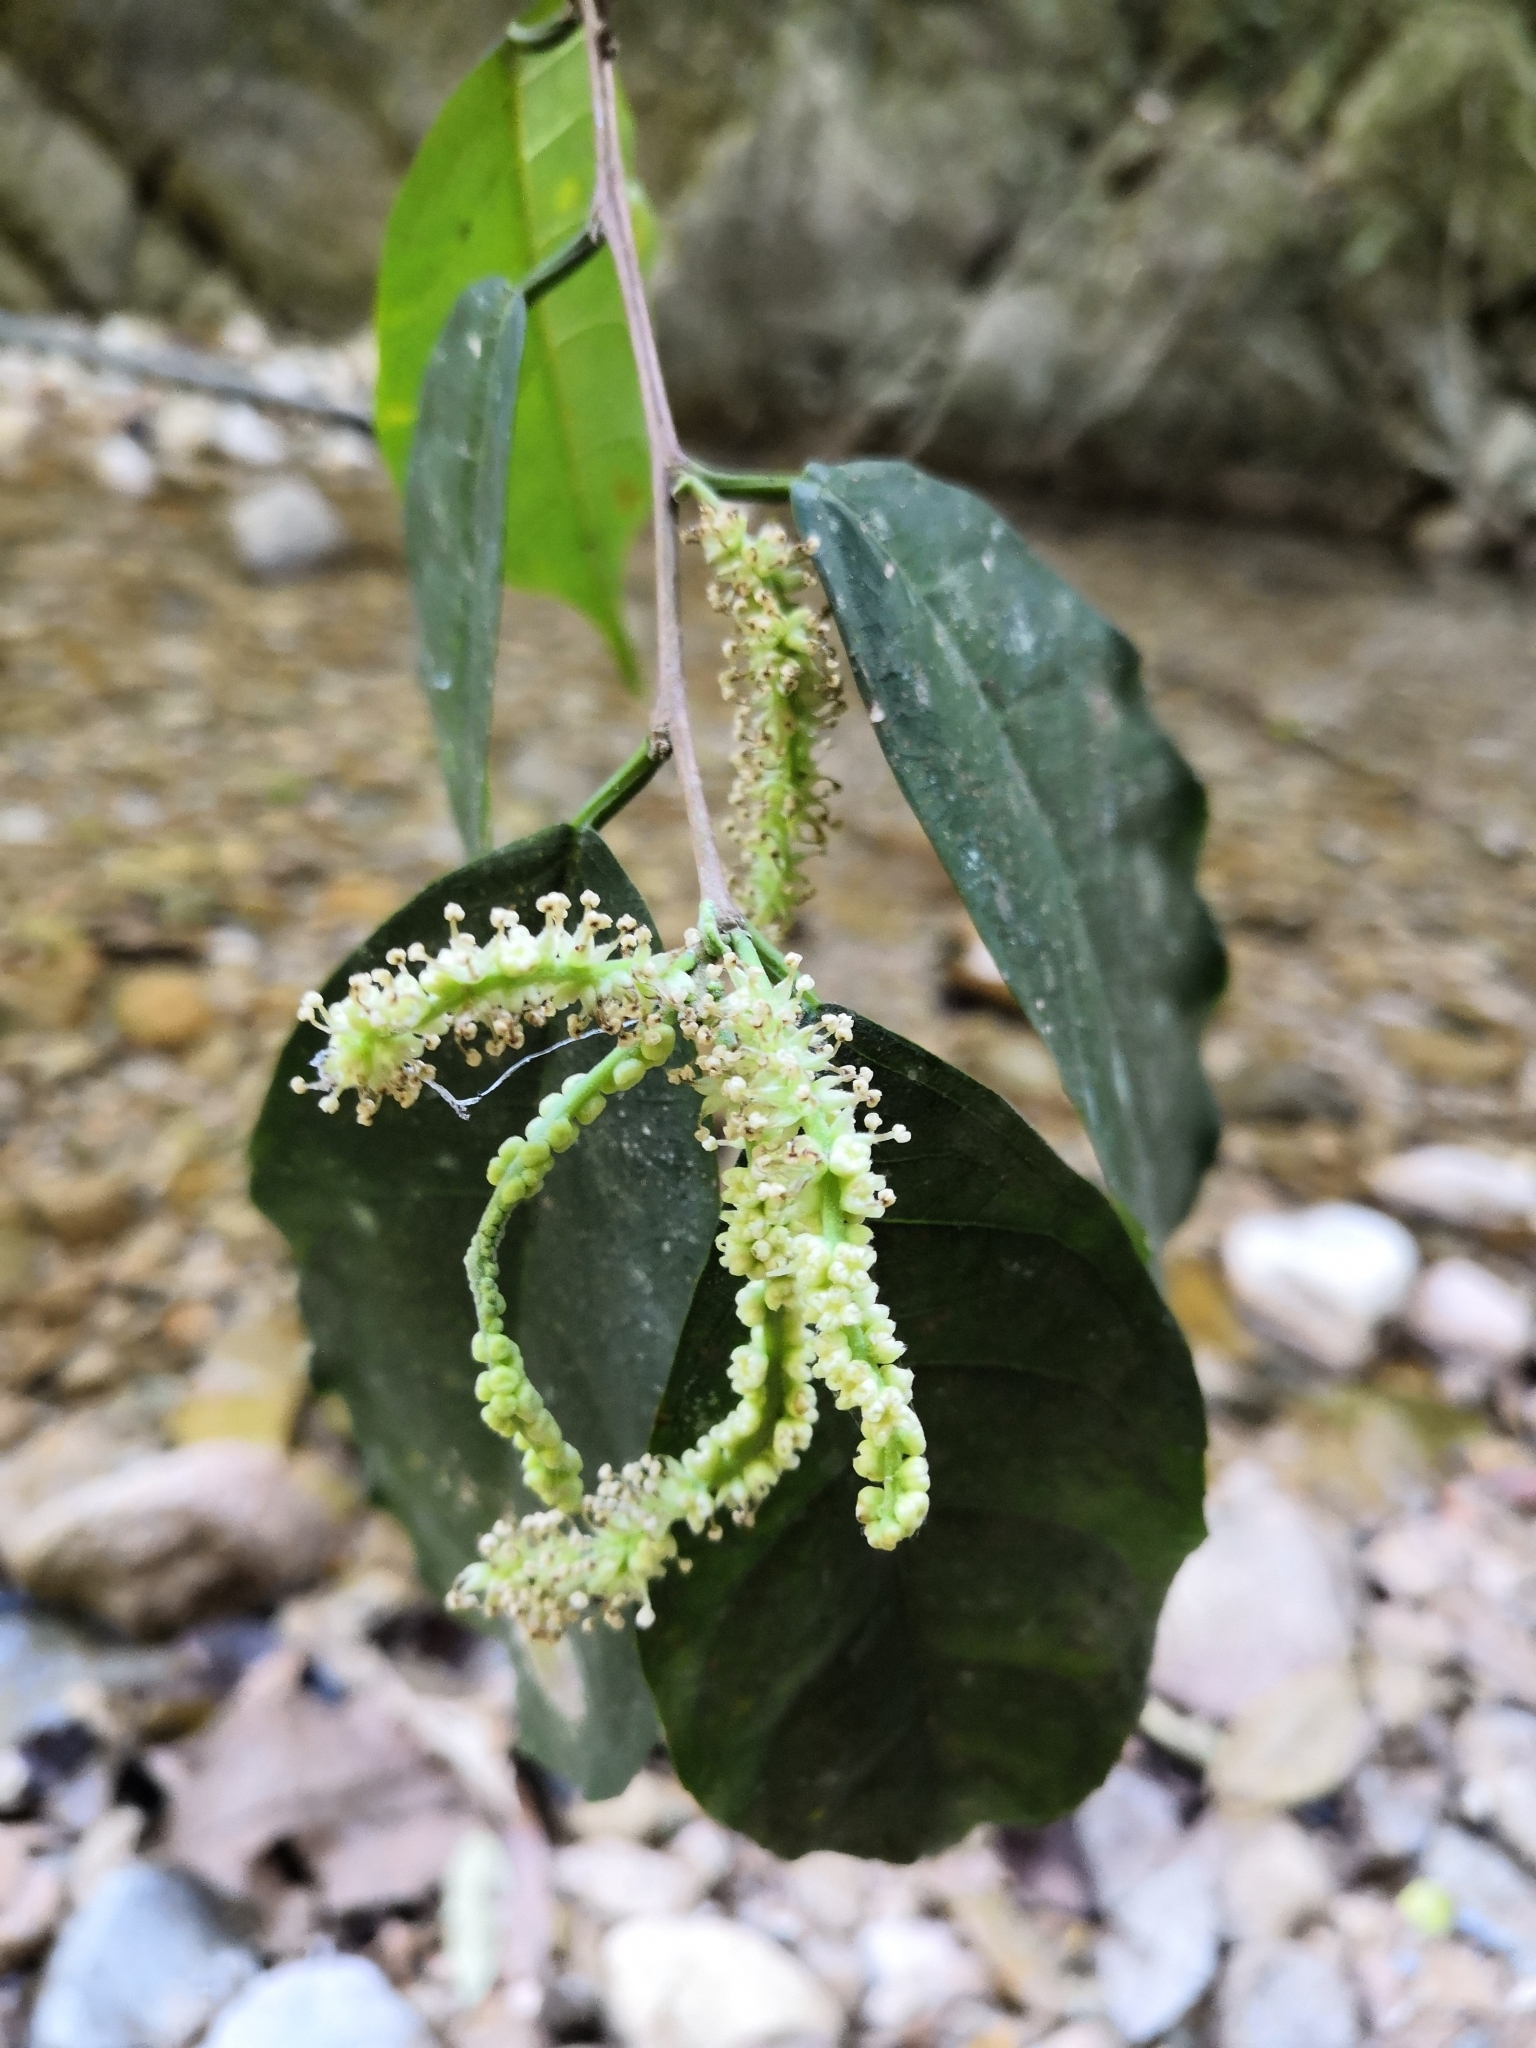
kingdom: Plantae
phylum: Tracheophyta
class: Magnoliopsida
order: Rosales
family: Moraceae
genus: Trophis
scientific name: Trophis racemosa
